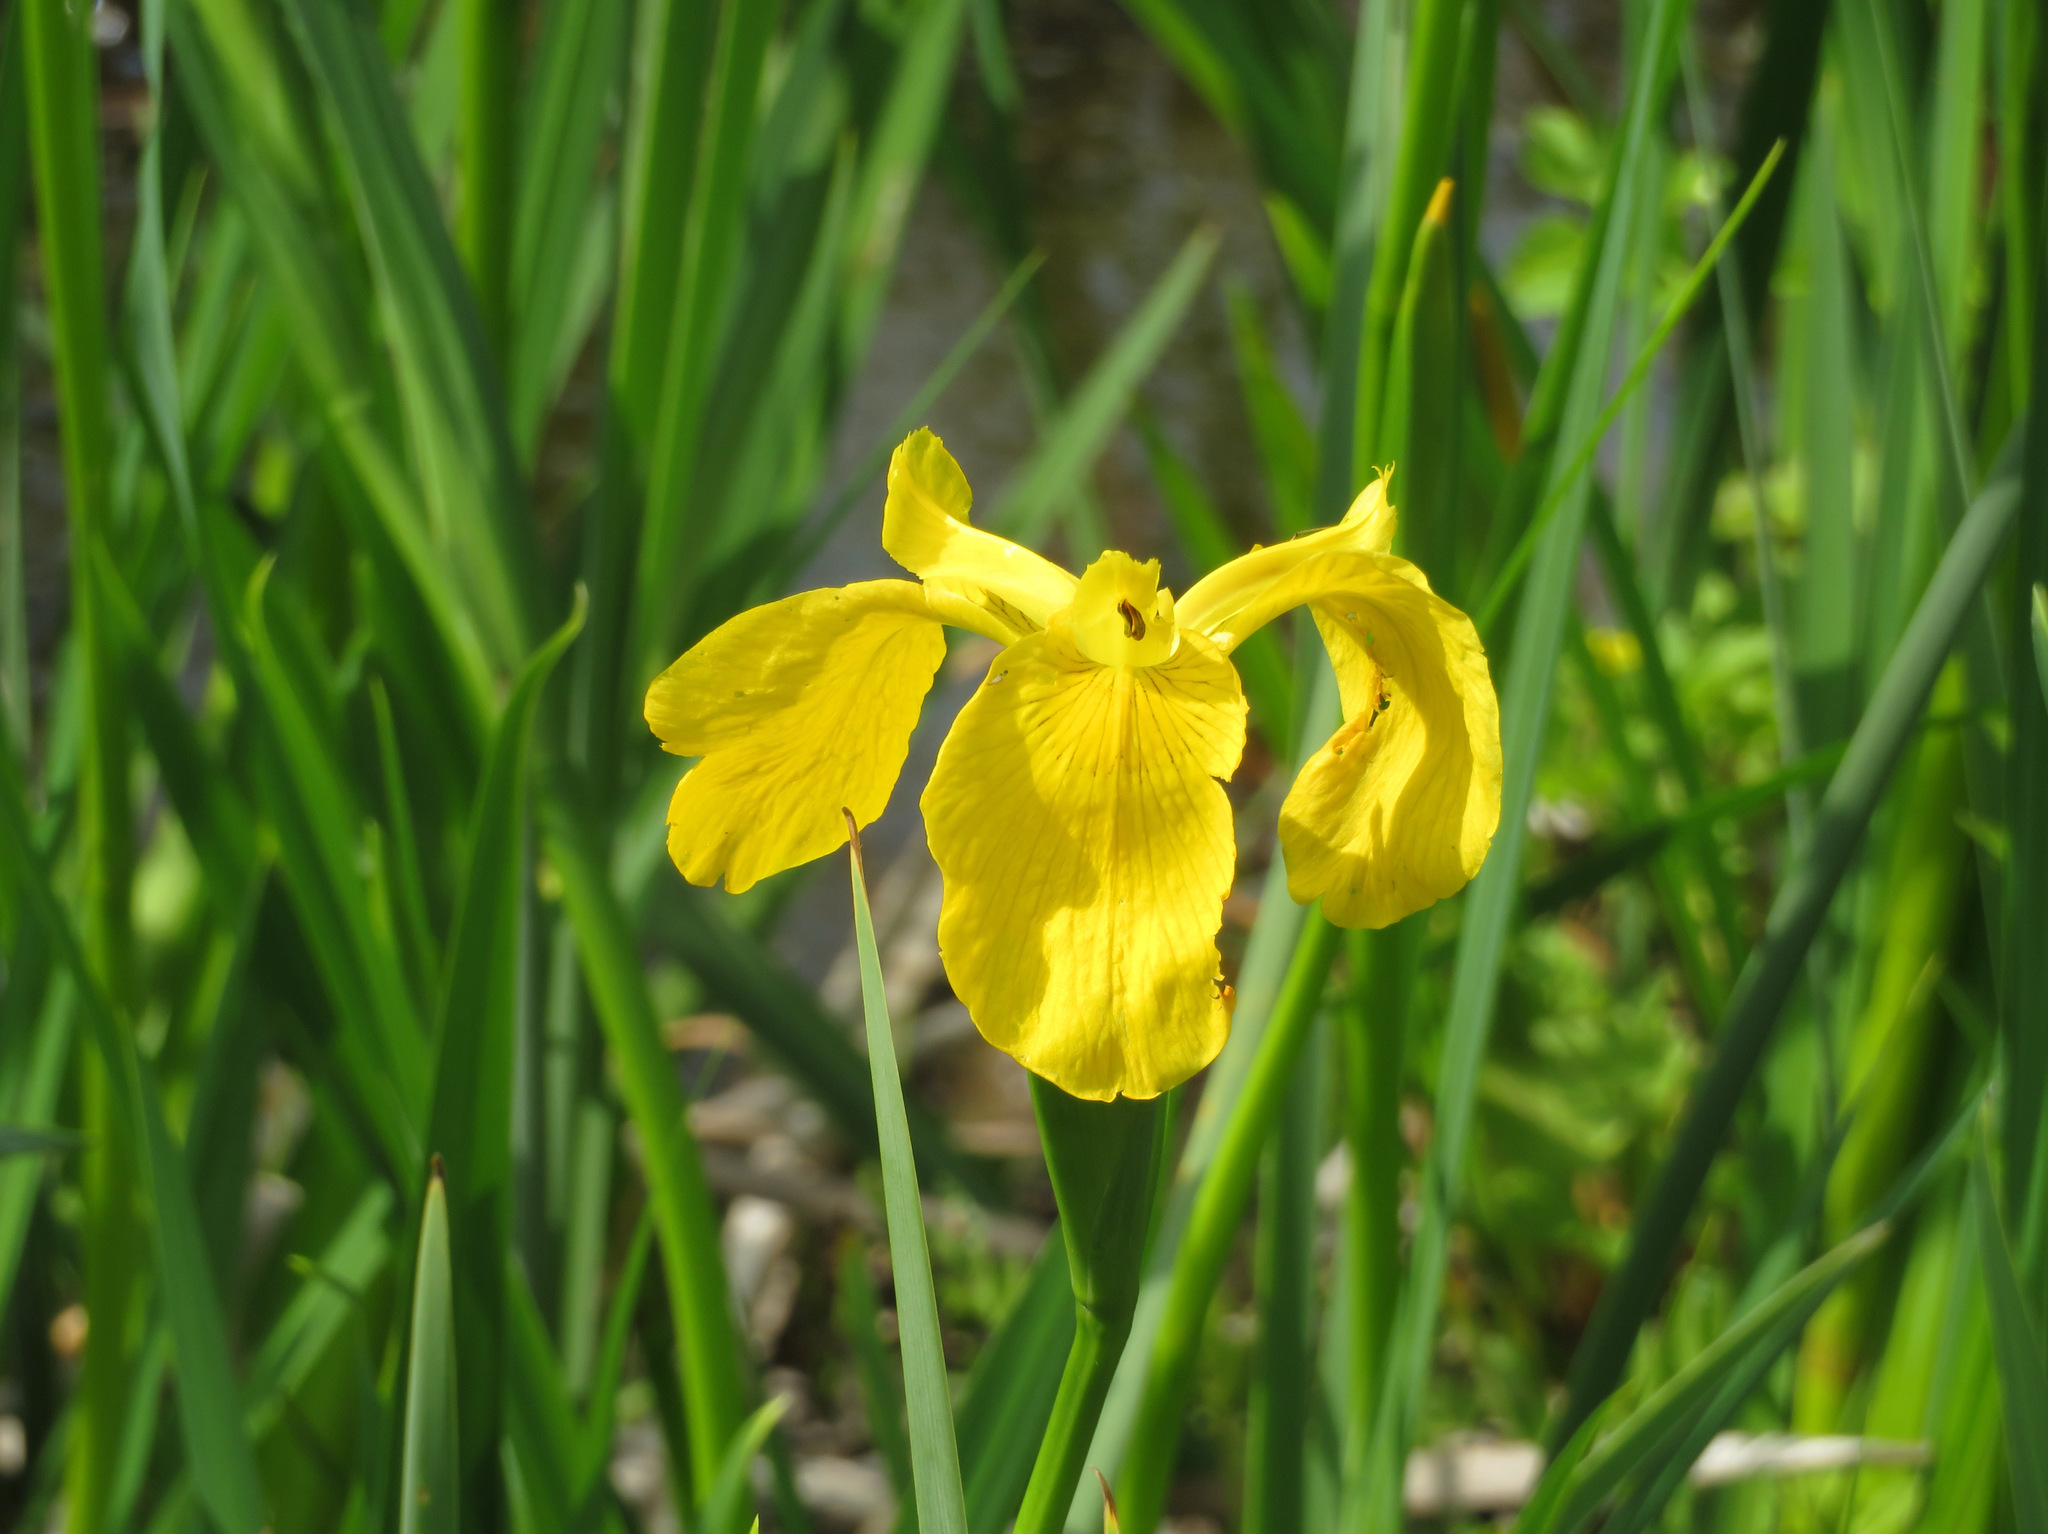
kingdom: Plantae
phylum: Tracheophyta
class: Liliopsida
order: Asparagales
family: Iridaceae
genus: Iris
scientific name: Iris pseudacorus
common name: Yellow flag
